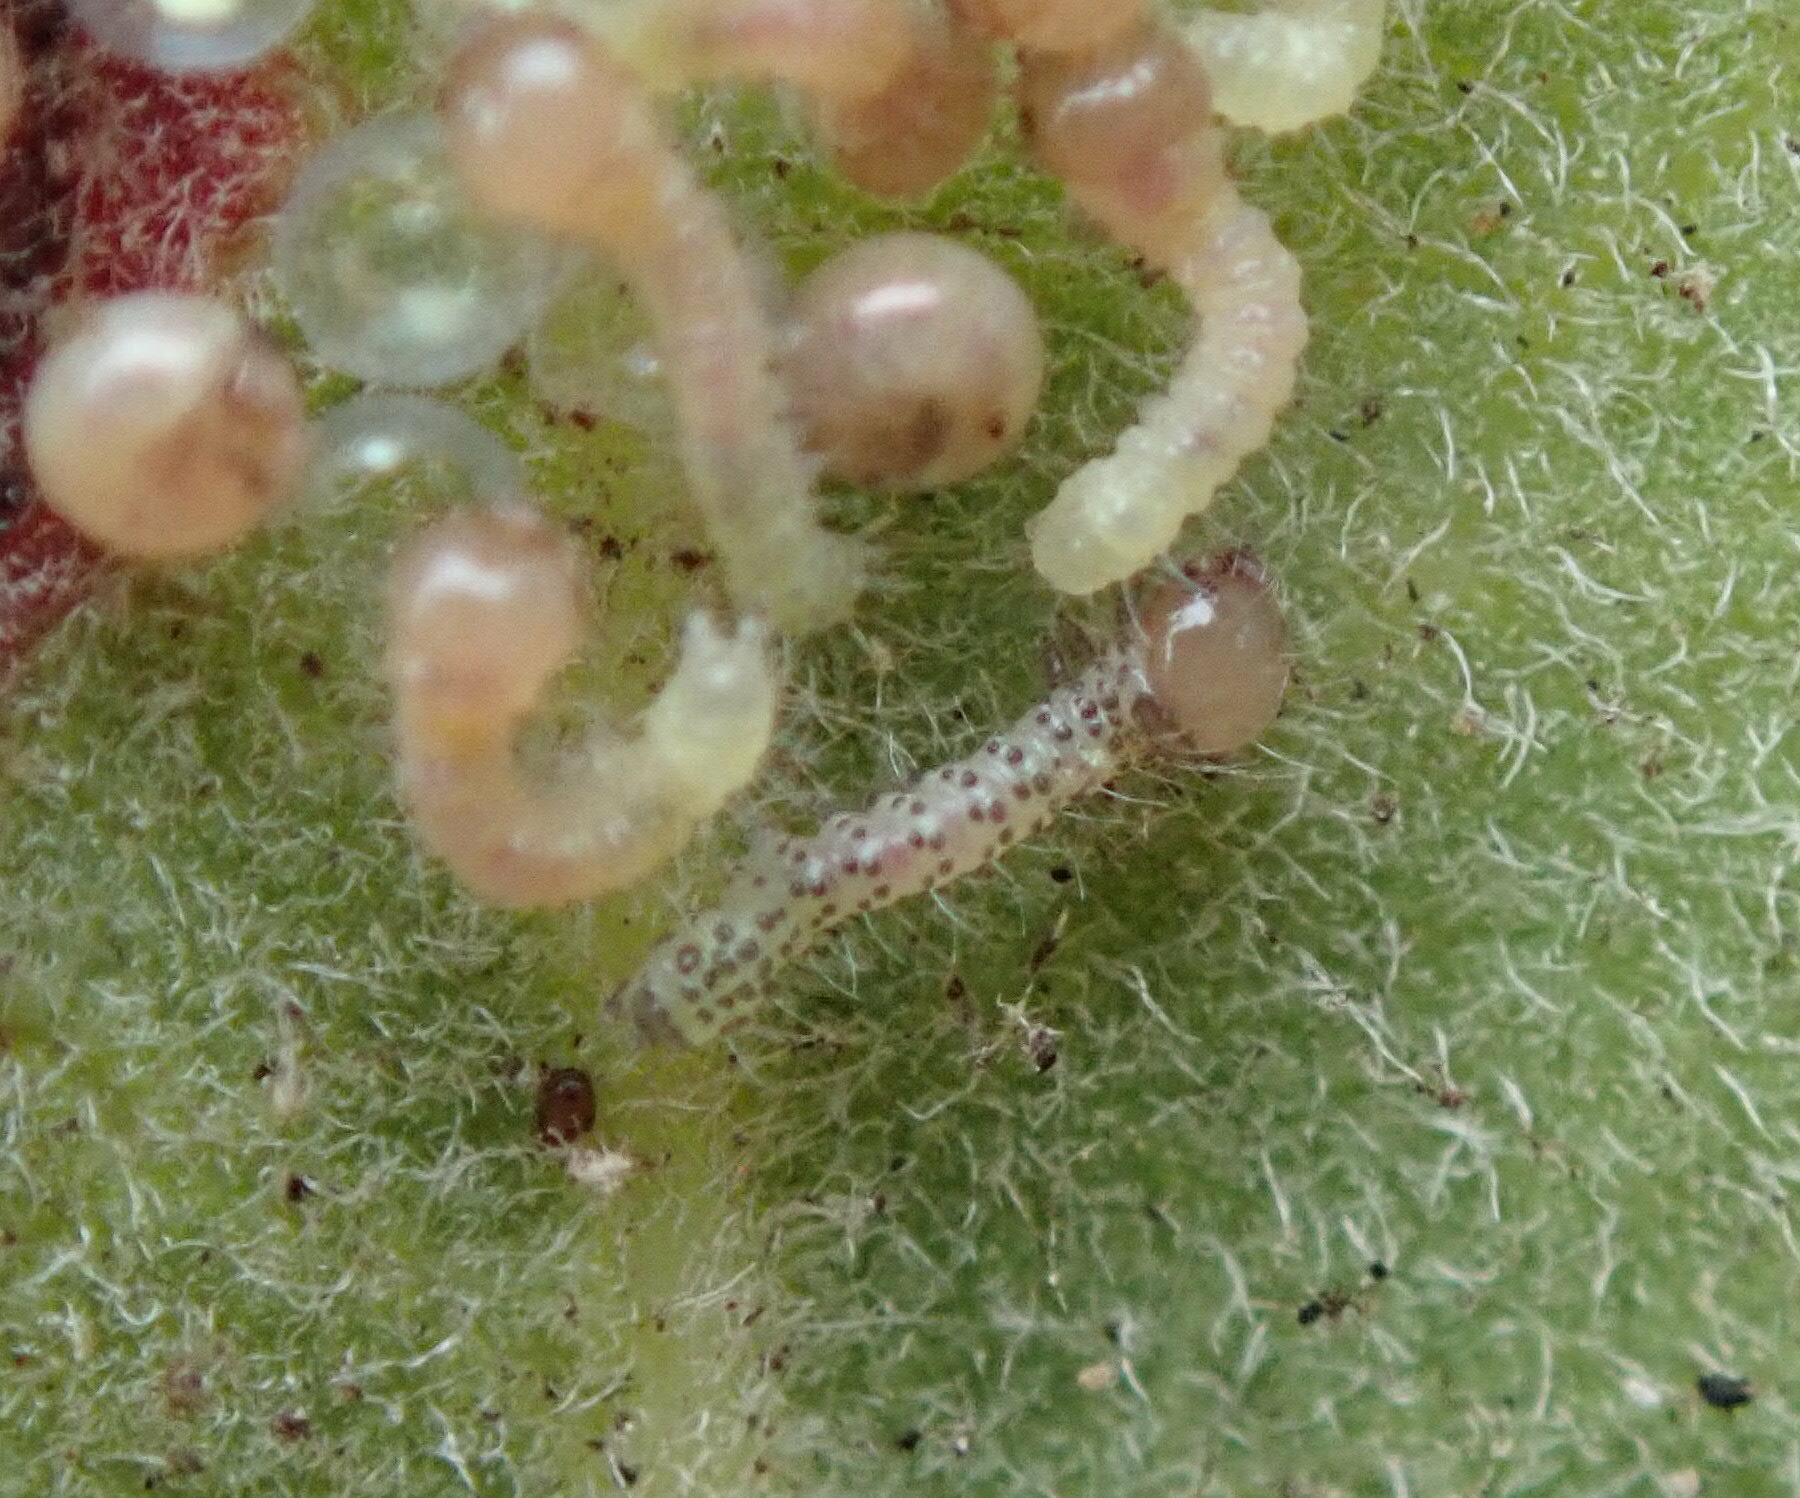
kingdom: Animalia
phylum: Arthropoda
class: Insecta
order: Lepidoptera
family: Notodontidae
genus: Phryganidia
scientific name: Phryganidia californica
